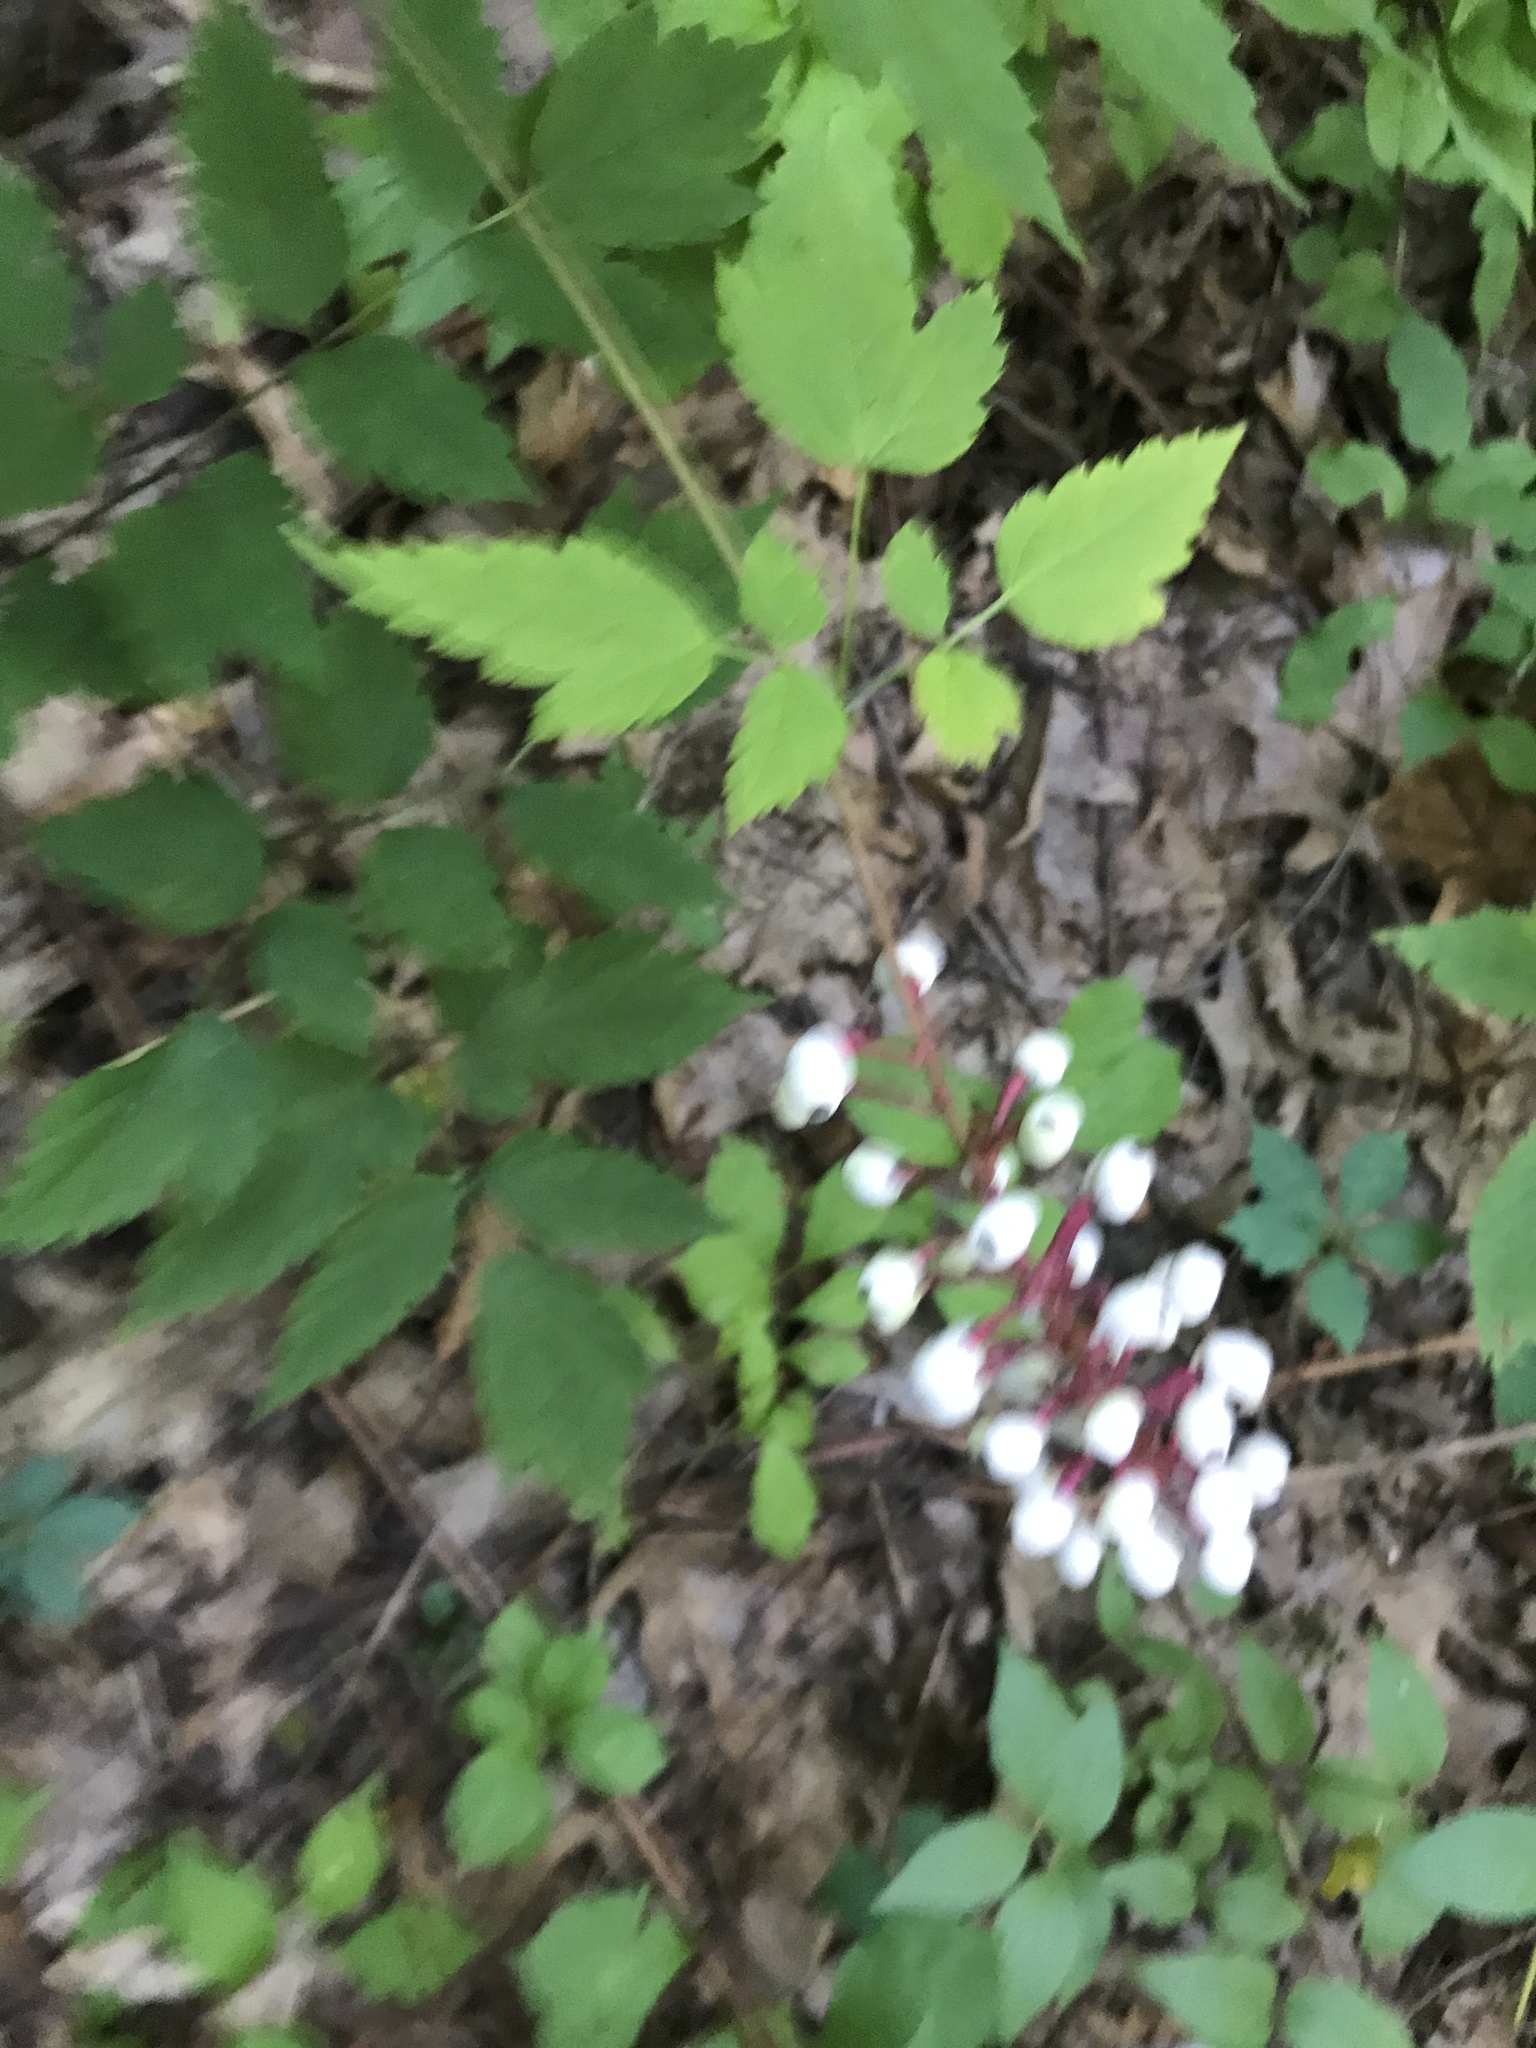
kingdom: Plantae
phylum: Tracheophyta
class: Magnoliopsida
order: Ranunculales
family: Ranunculaceae
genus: Actaea
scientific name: Actaea pachypoda
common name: Doll's-eyes
